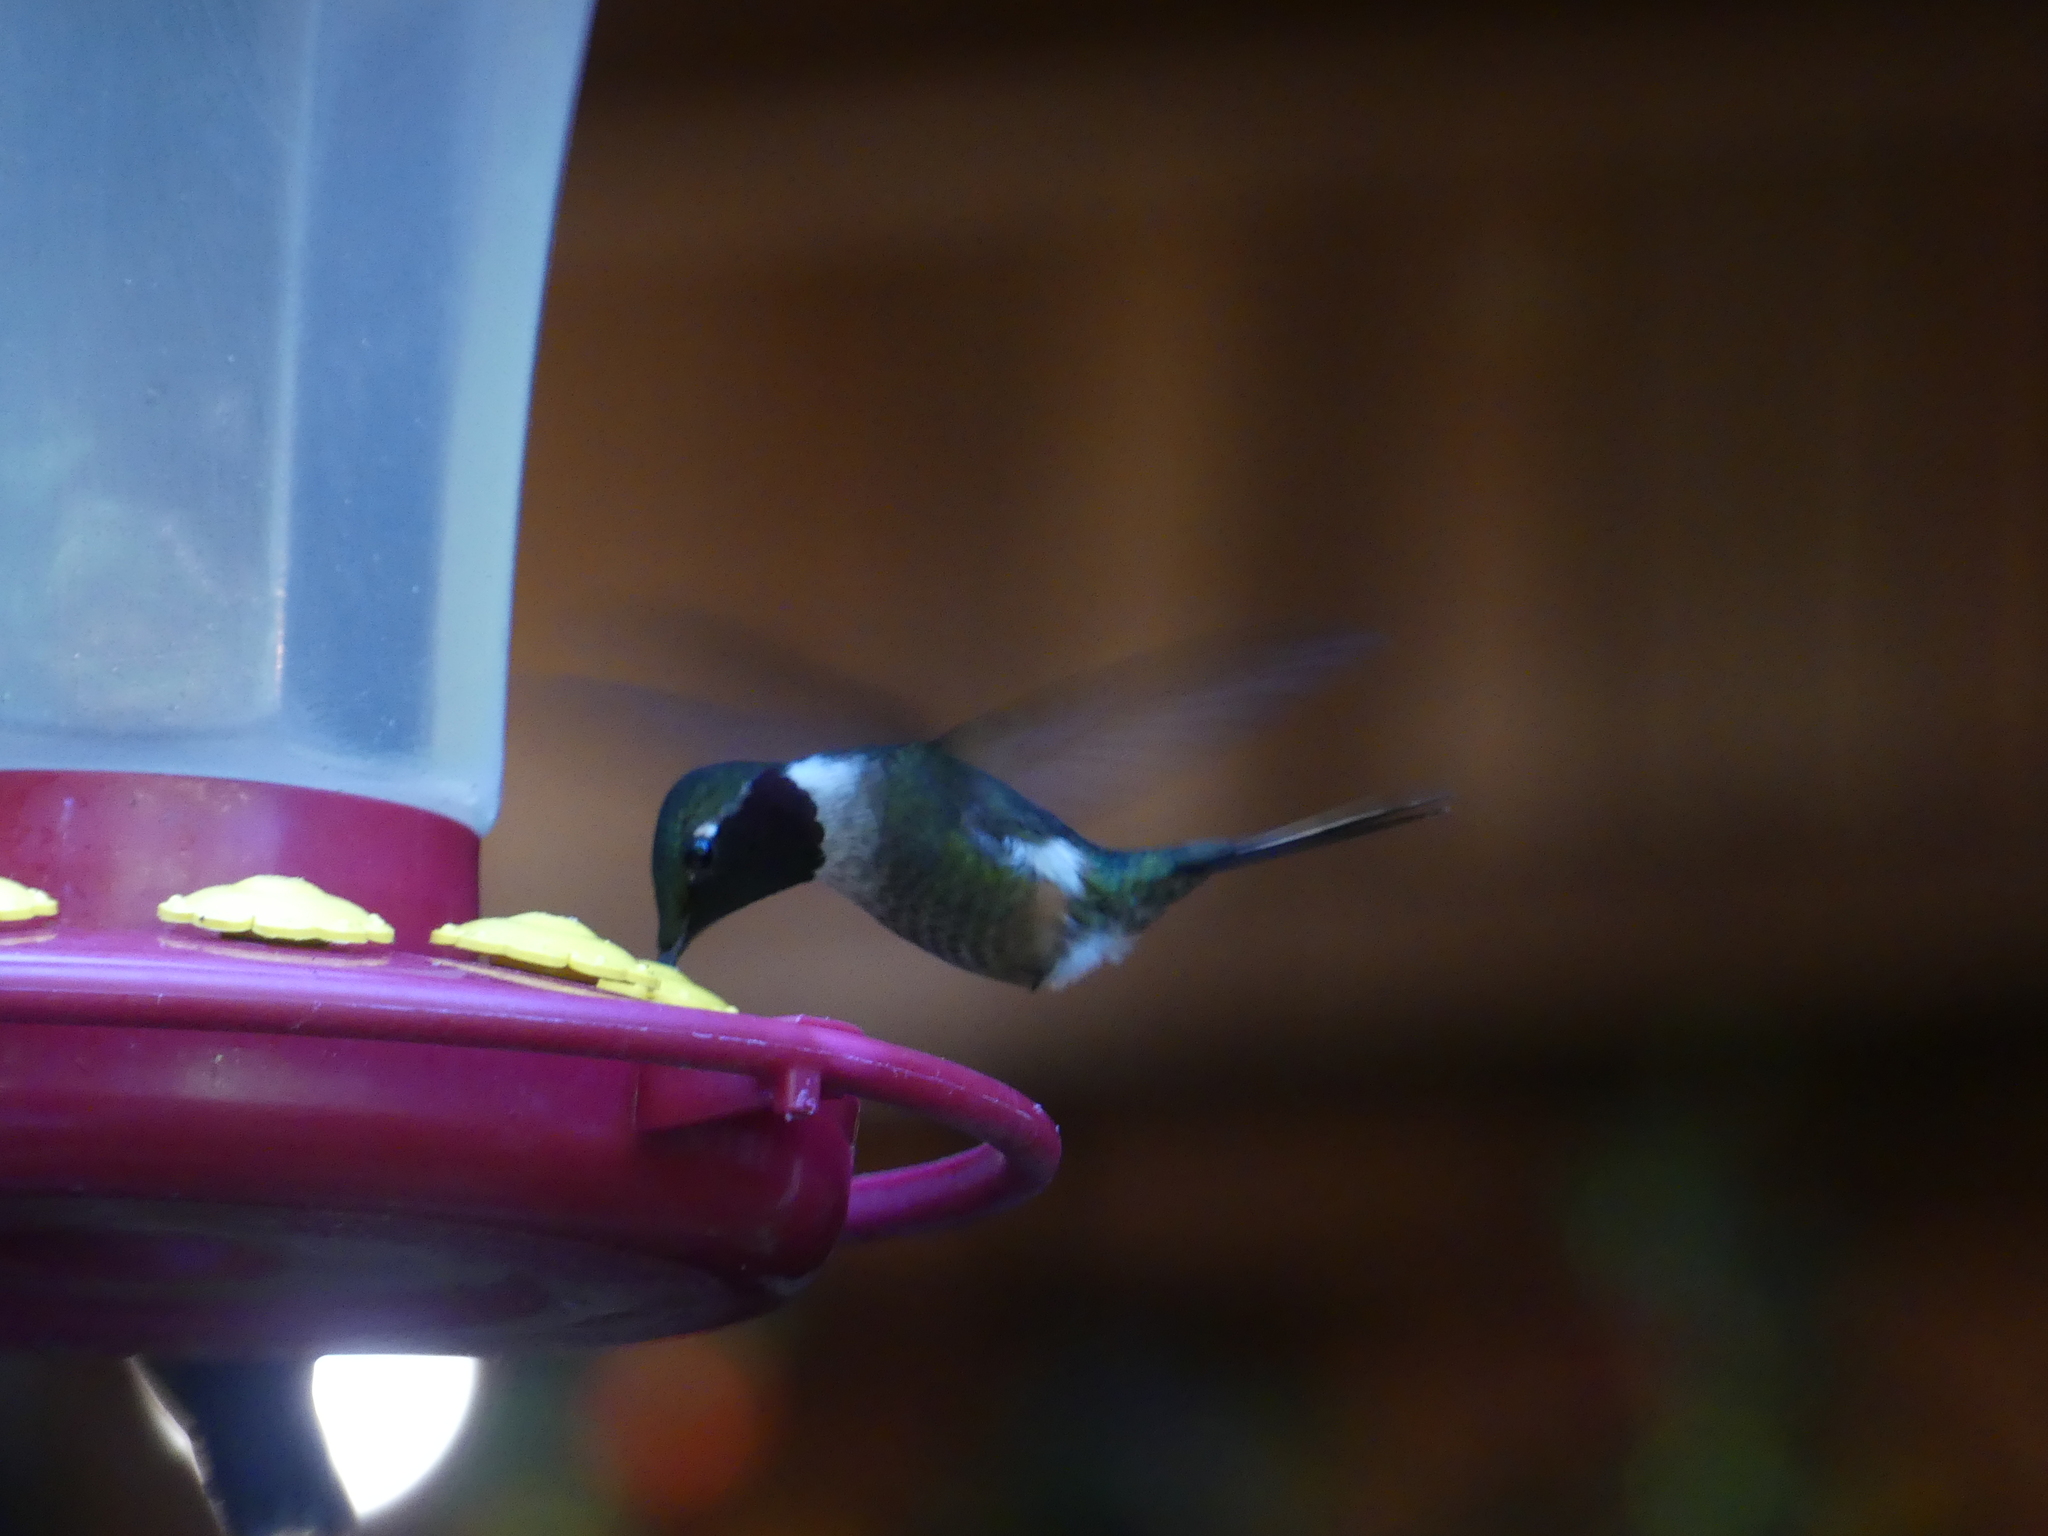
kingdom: Animalia
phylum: Chordata
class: Aves
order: Apodiformes
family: Trochilidae
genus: Calliphlox
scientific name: Calliphlox bryantae
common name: Magenta-throated woodstar
